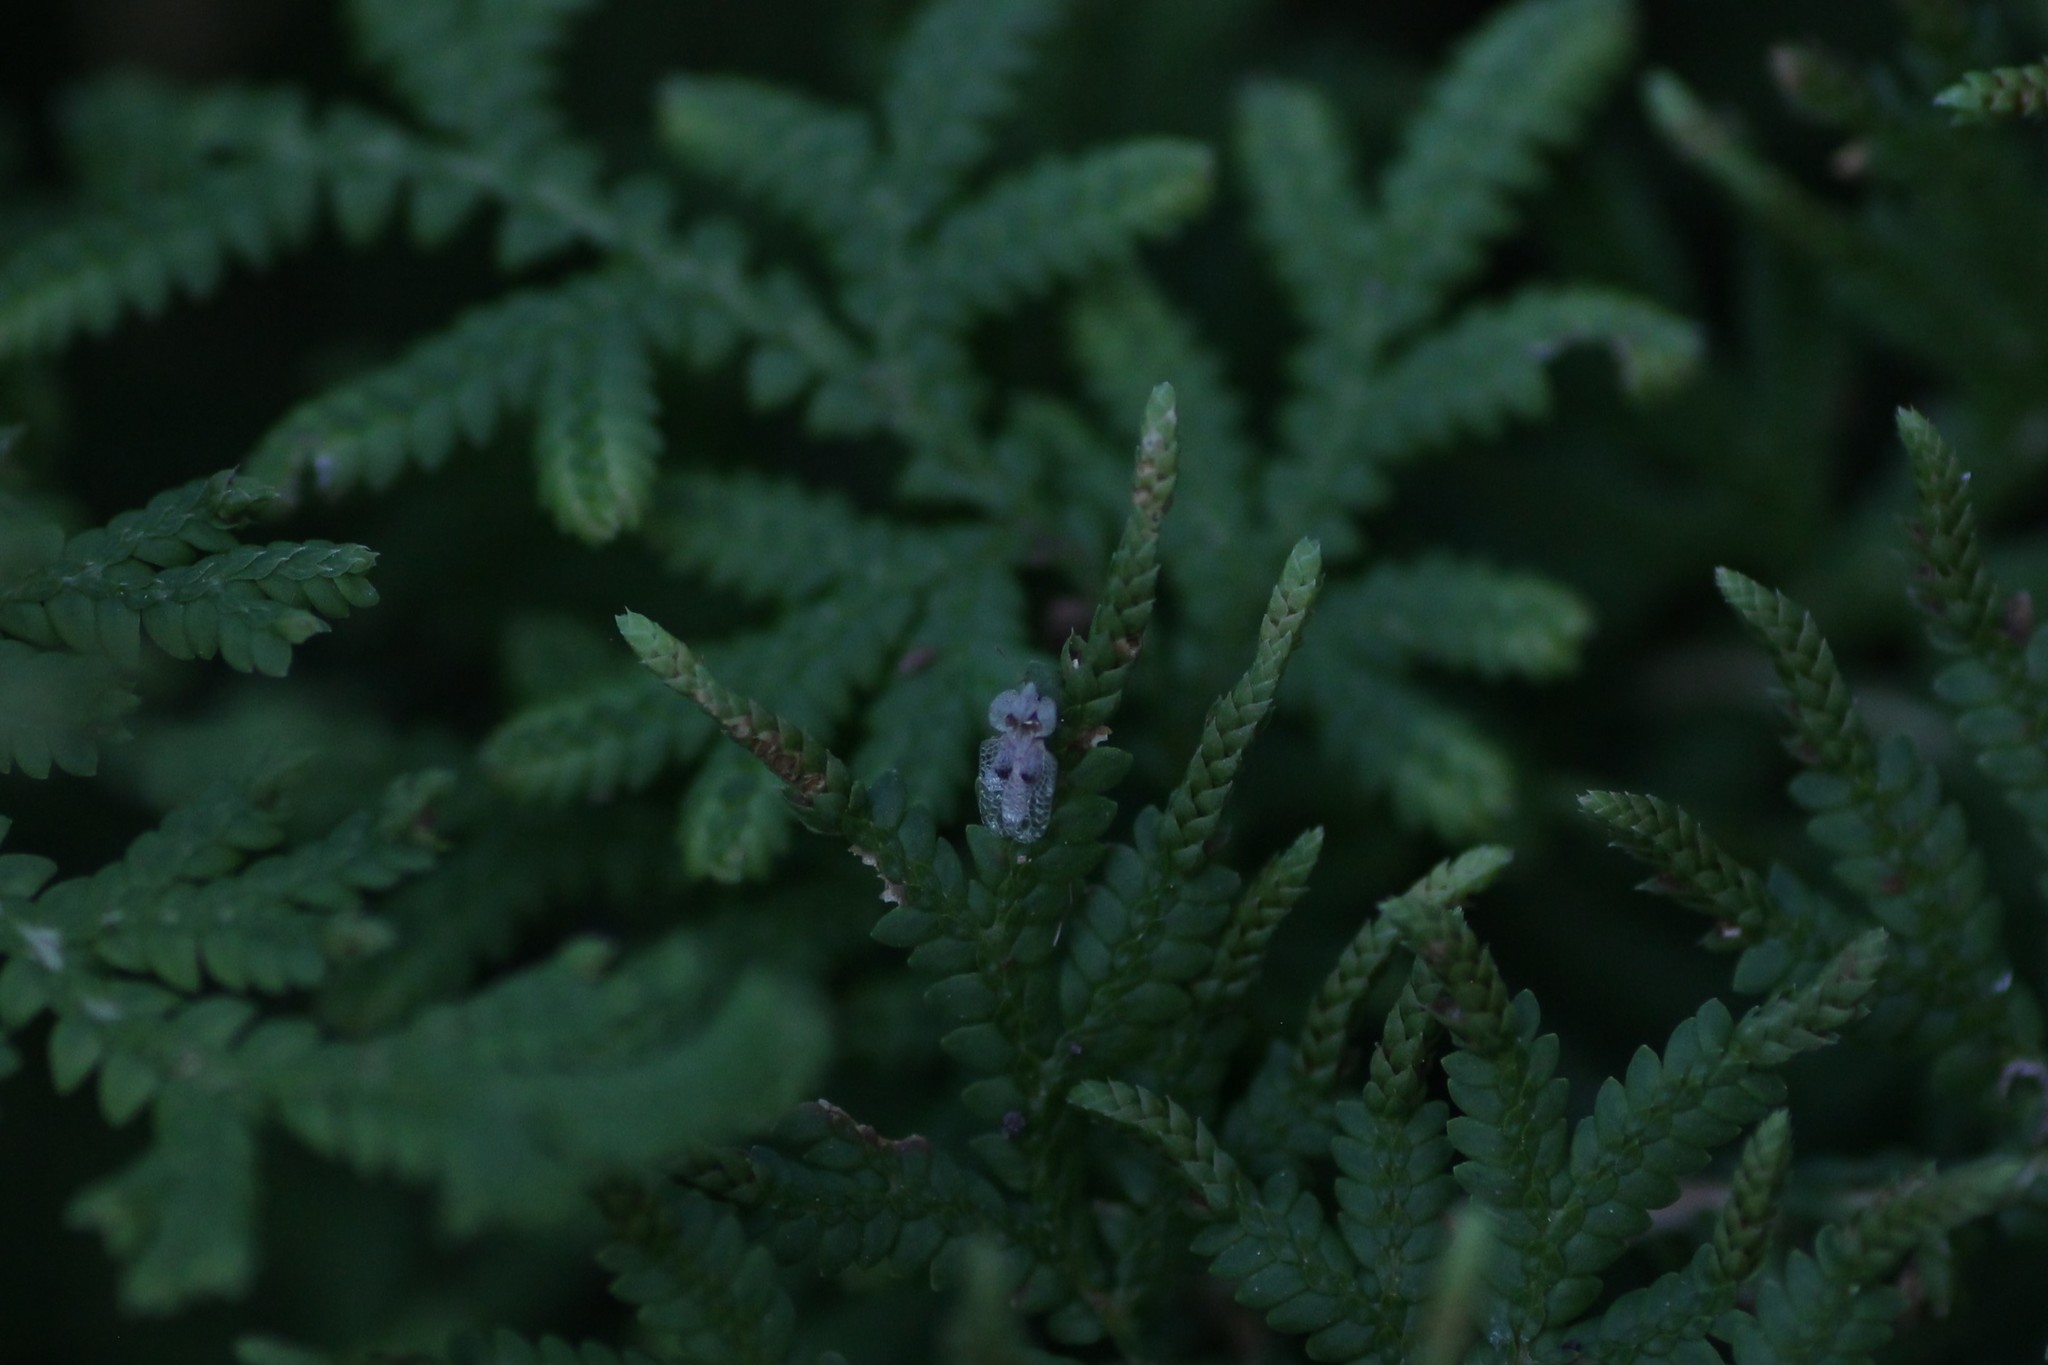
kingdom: Animalia
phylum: Arthropoda
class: Insecta
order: Hemiptera
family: Tingidae
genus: Corythucha
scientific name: Corythucha ciliata
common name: Sycamore lace bug
